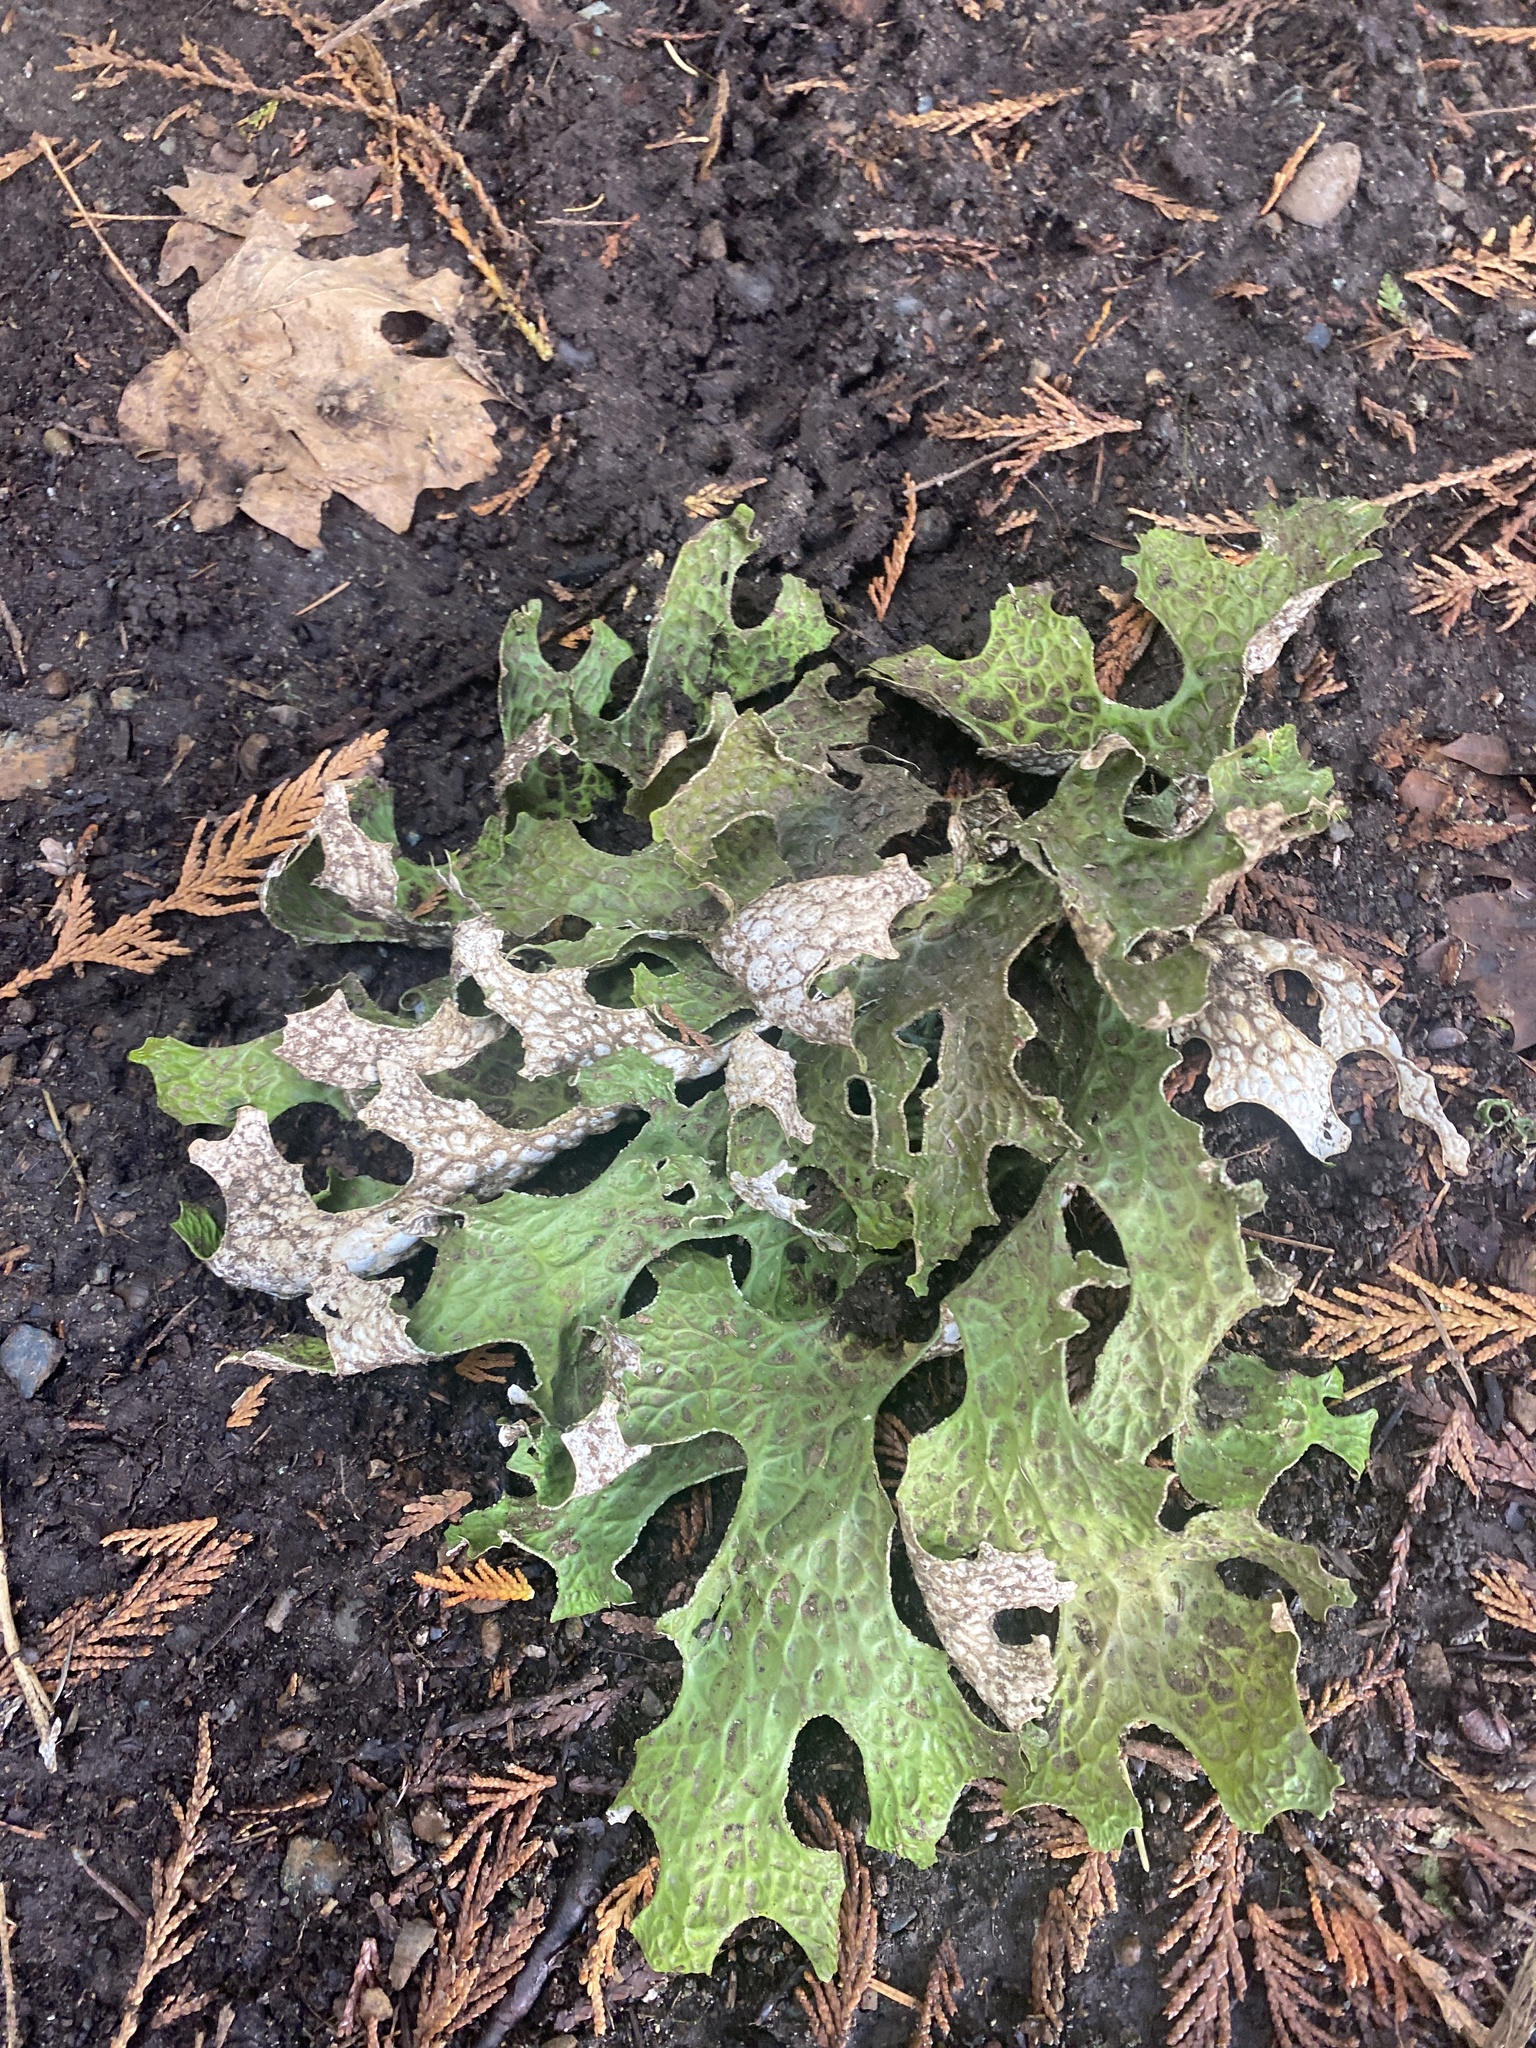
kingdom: Fungi
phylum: Ascomycota
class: Lecanoromycetes
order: Peltigerales
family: Lobariaceae
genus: Lobaria
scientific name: Lobaria pulmonaria
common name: Lungwort
